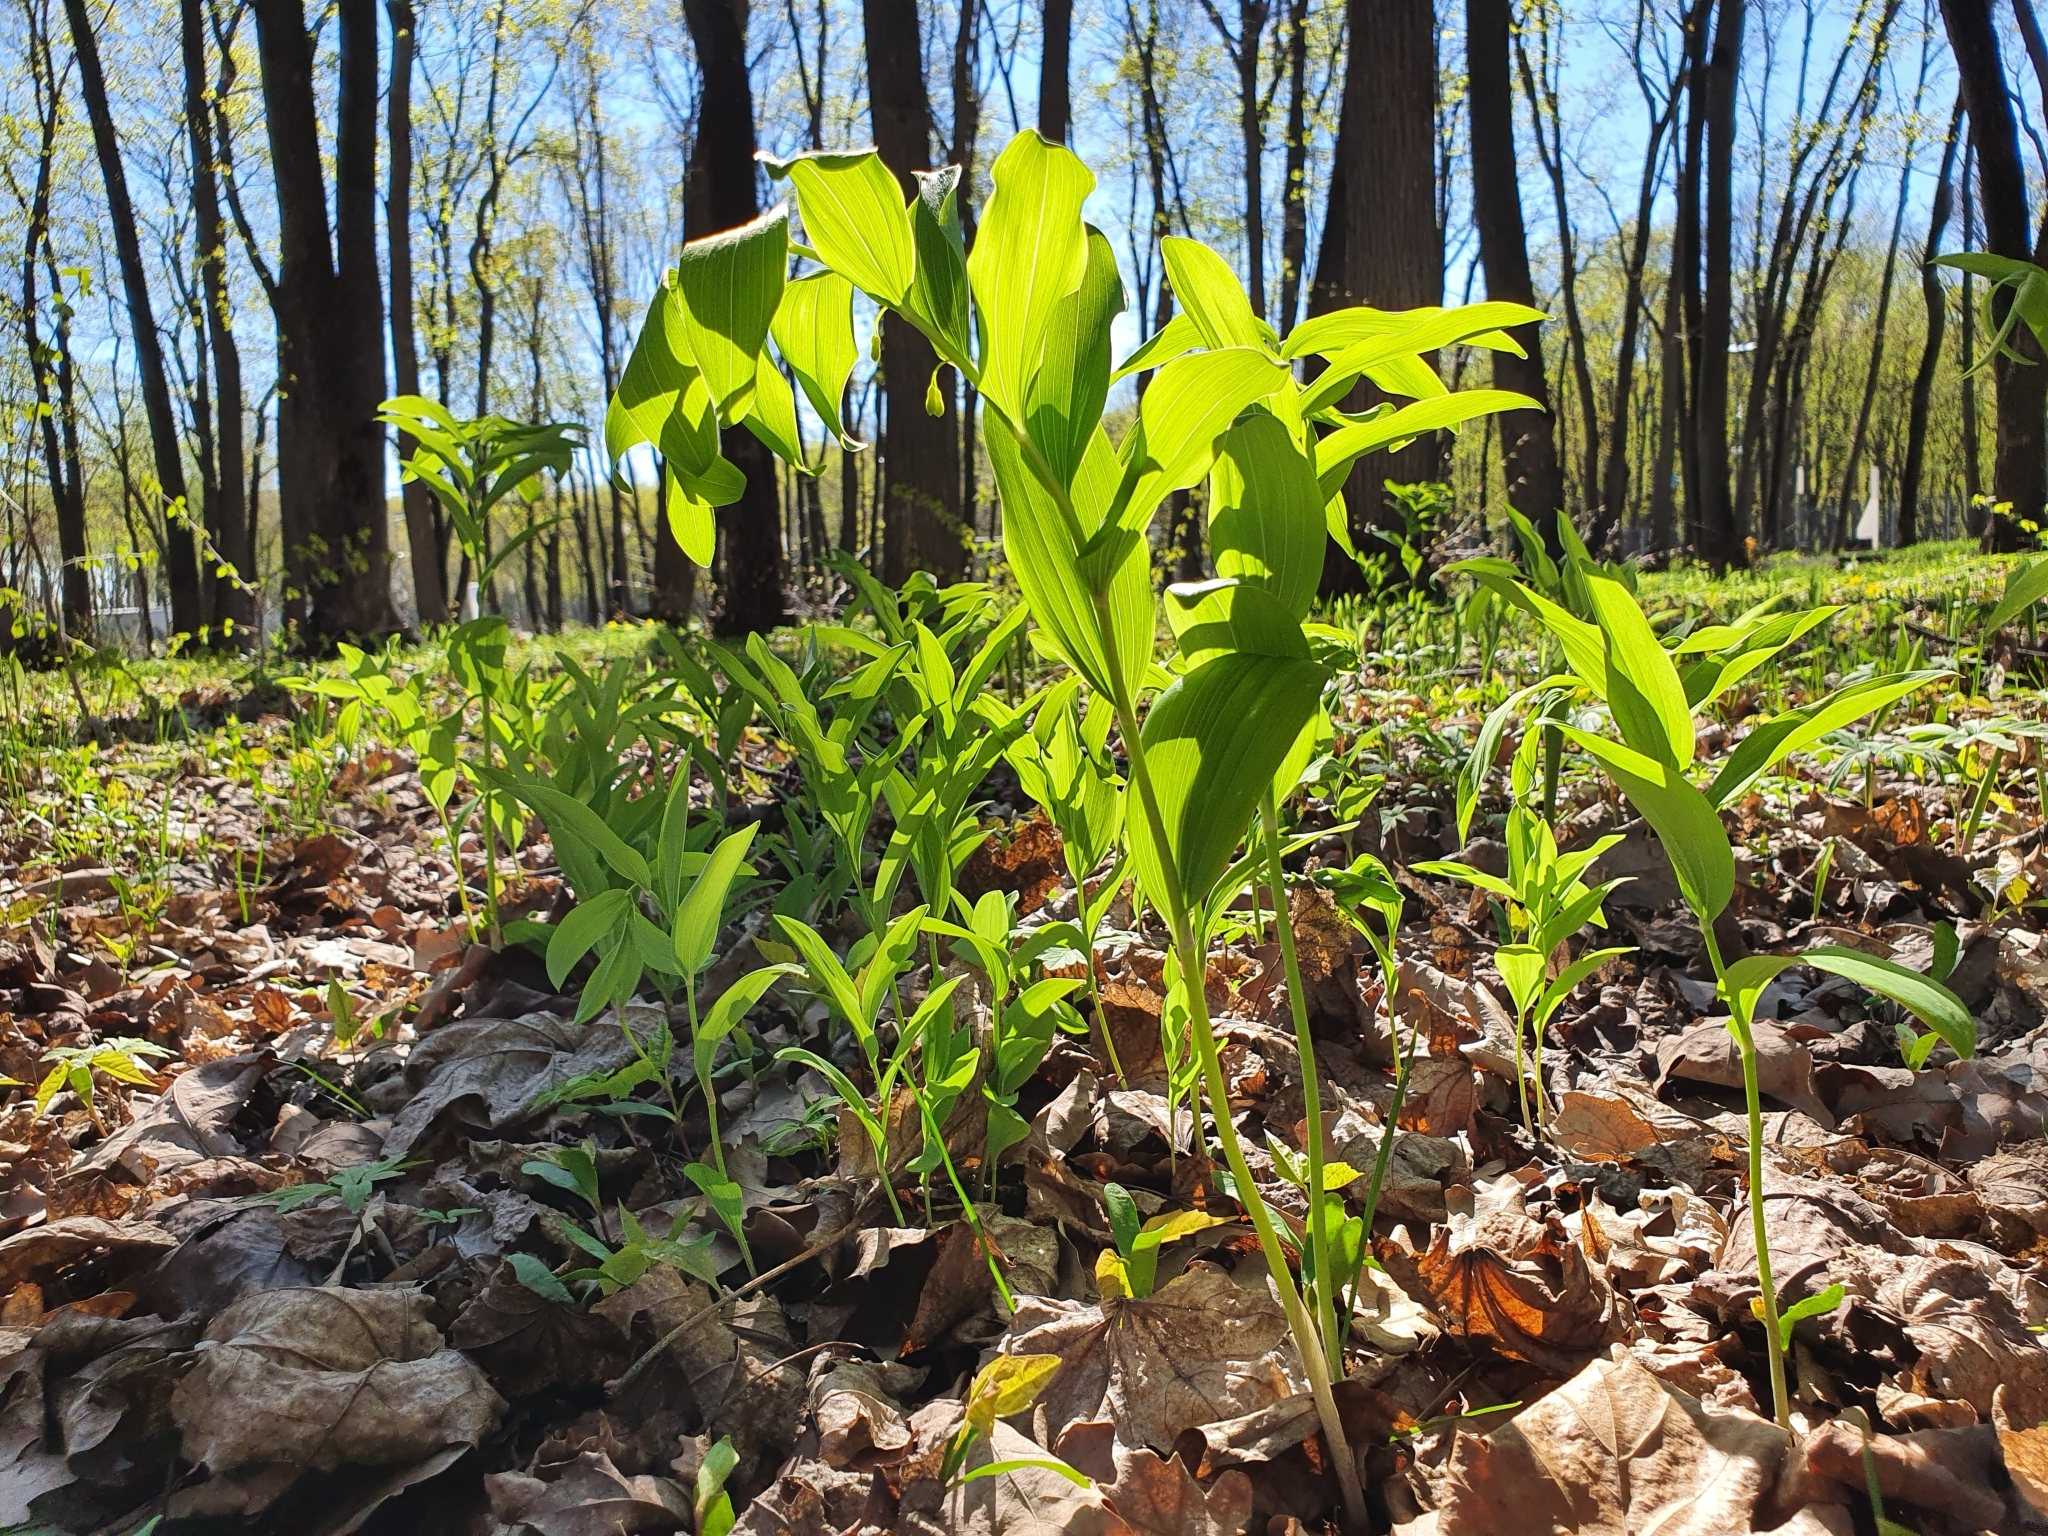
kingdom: Plantae
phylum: Tracheophyta
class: Liliopsida
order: Asparagales
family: Asparagaceae
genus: Polygonatum
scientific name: Polygonatum odoratum
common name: Angular solomon's-seal
